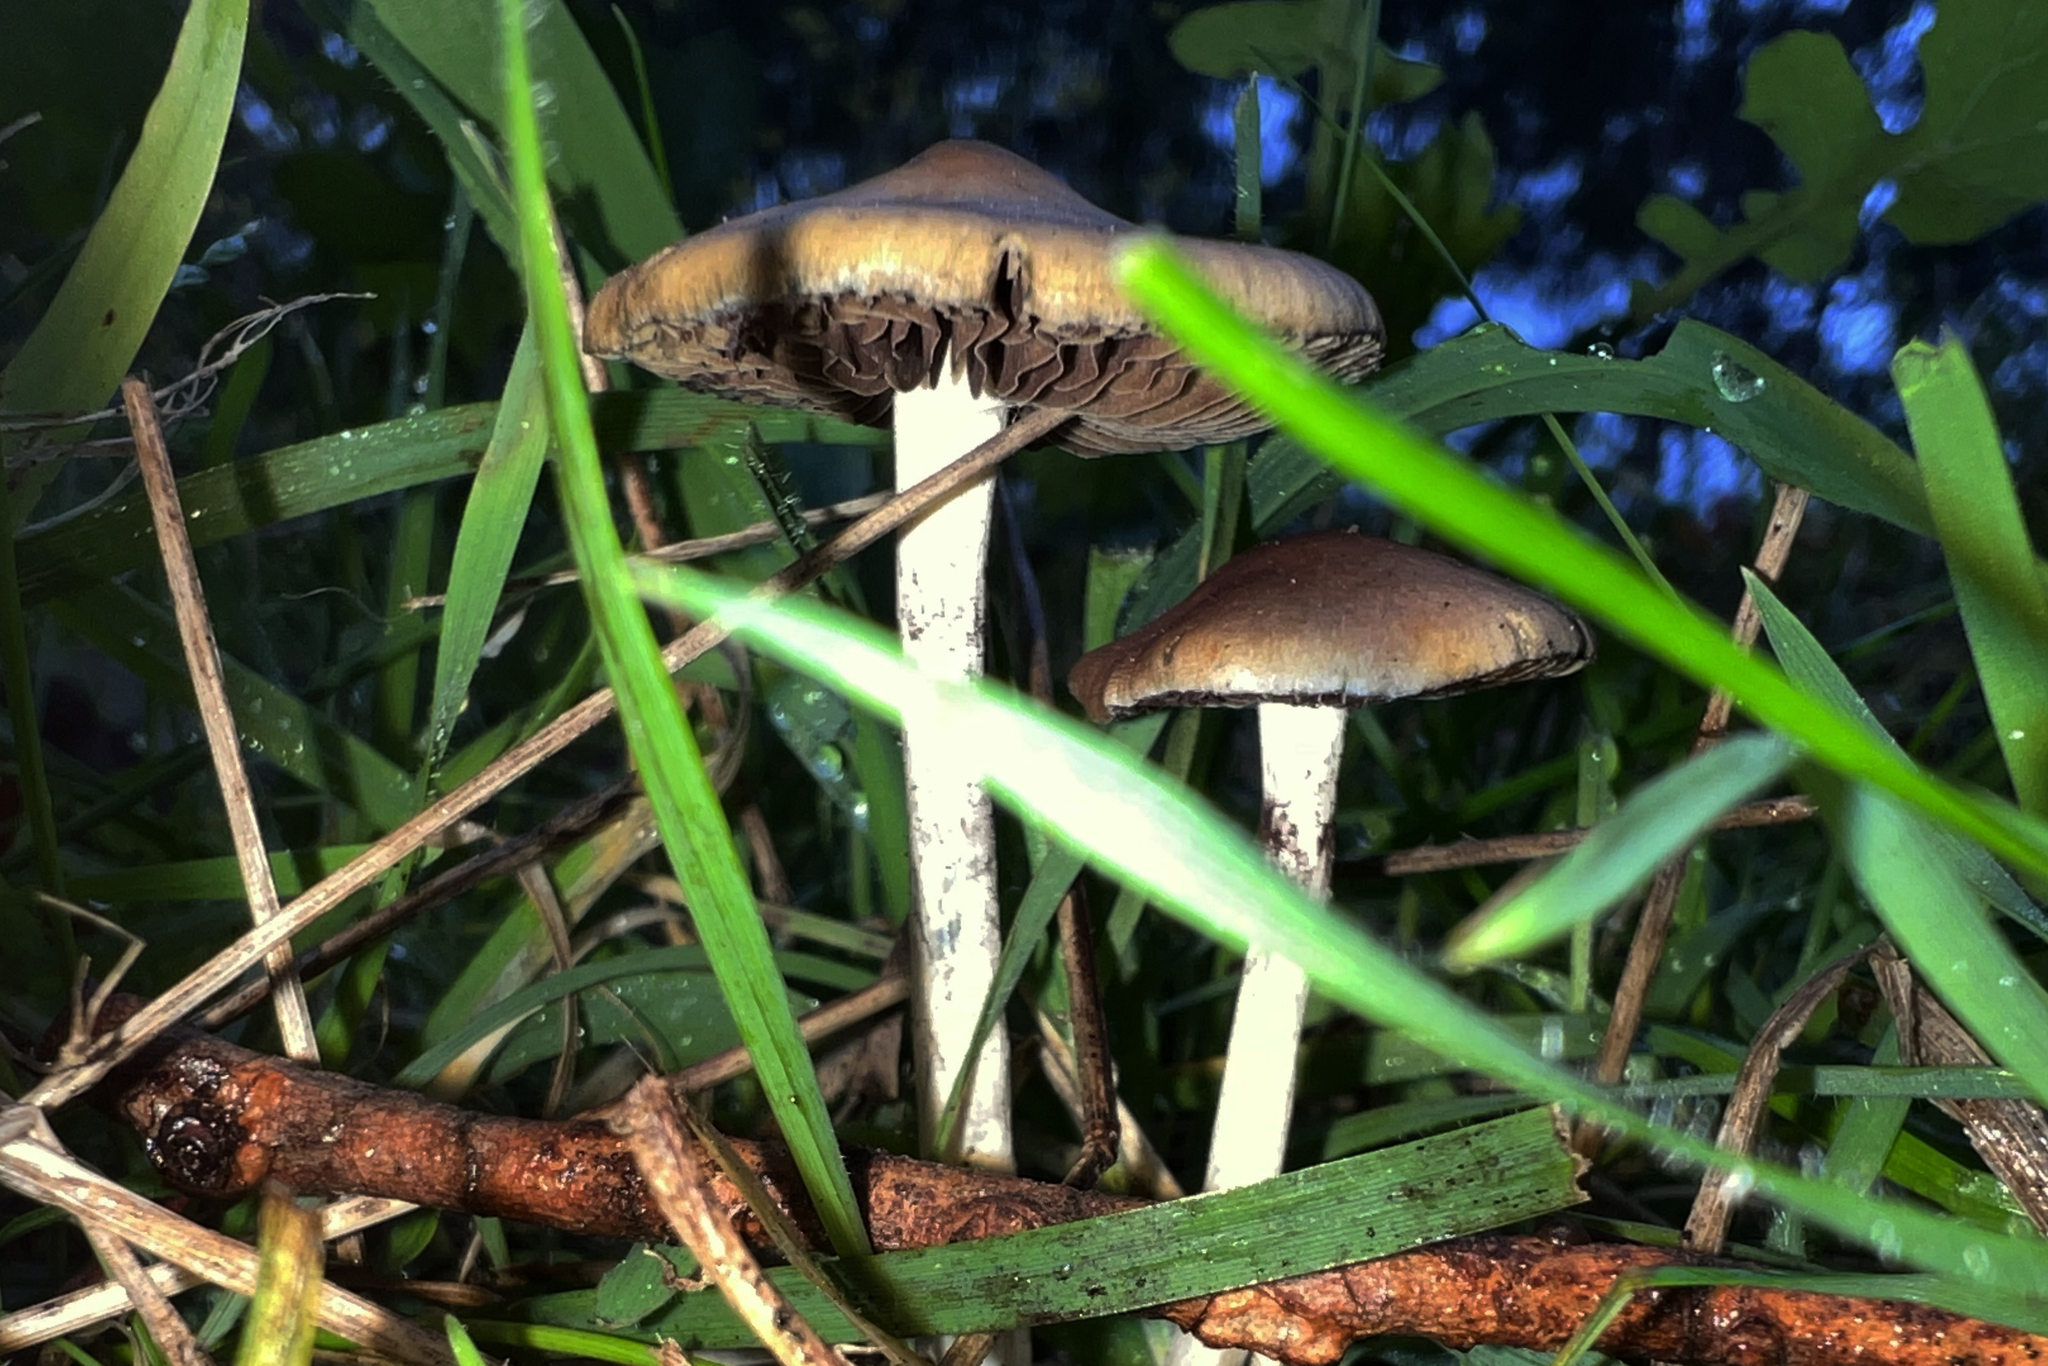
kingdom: Fungi
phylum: Basidiomycota
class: Agaricomycetes
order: Agaricales
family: Hymenogastraceae
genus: Psilocybe
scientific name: Psilocybe subaeruginosa
